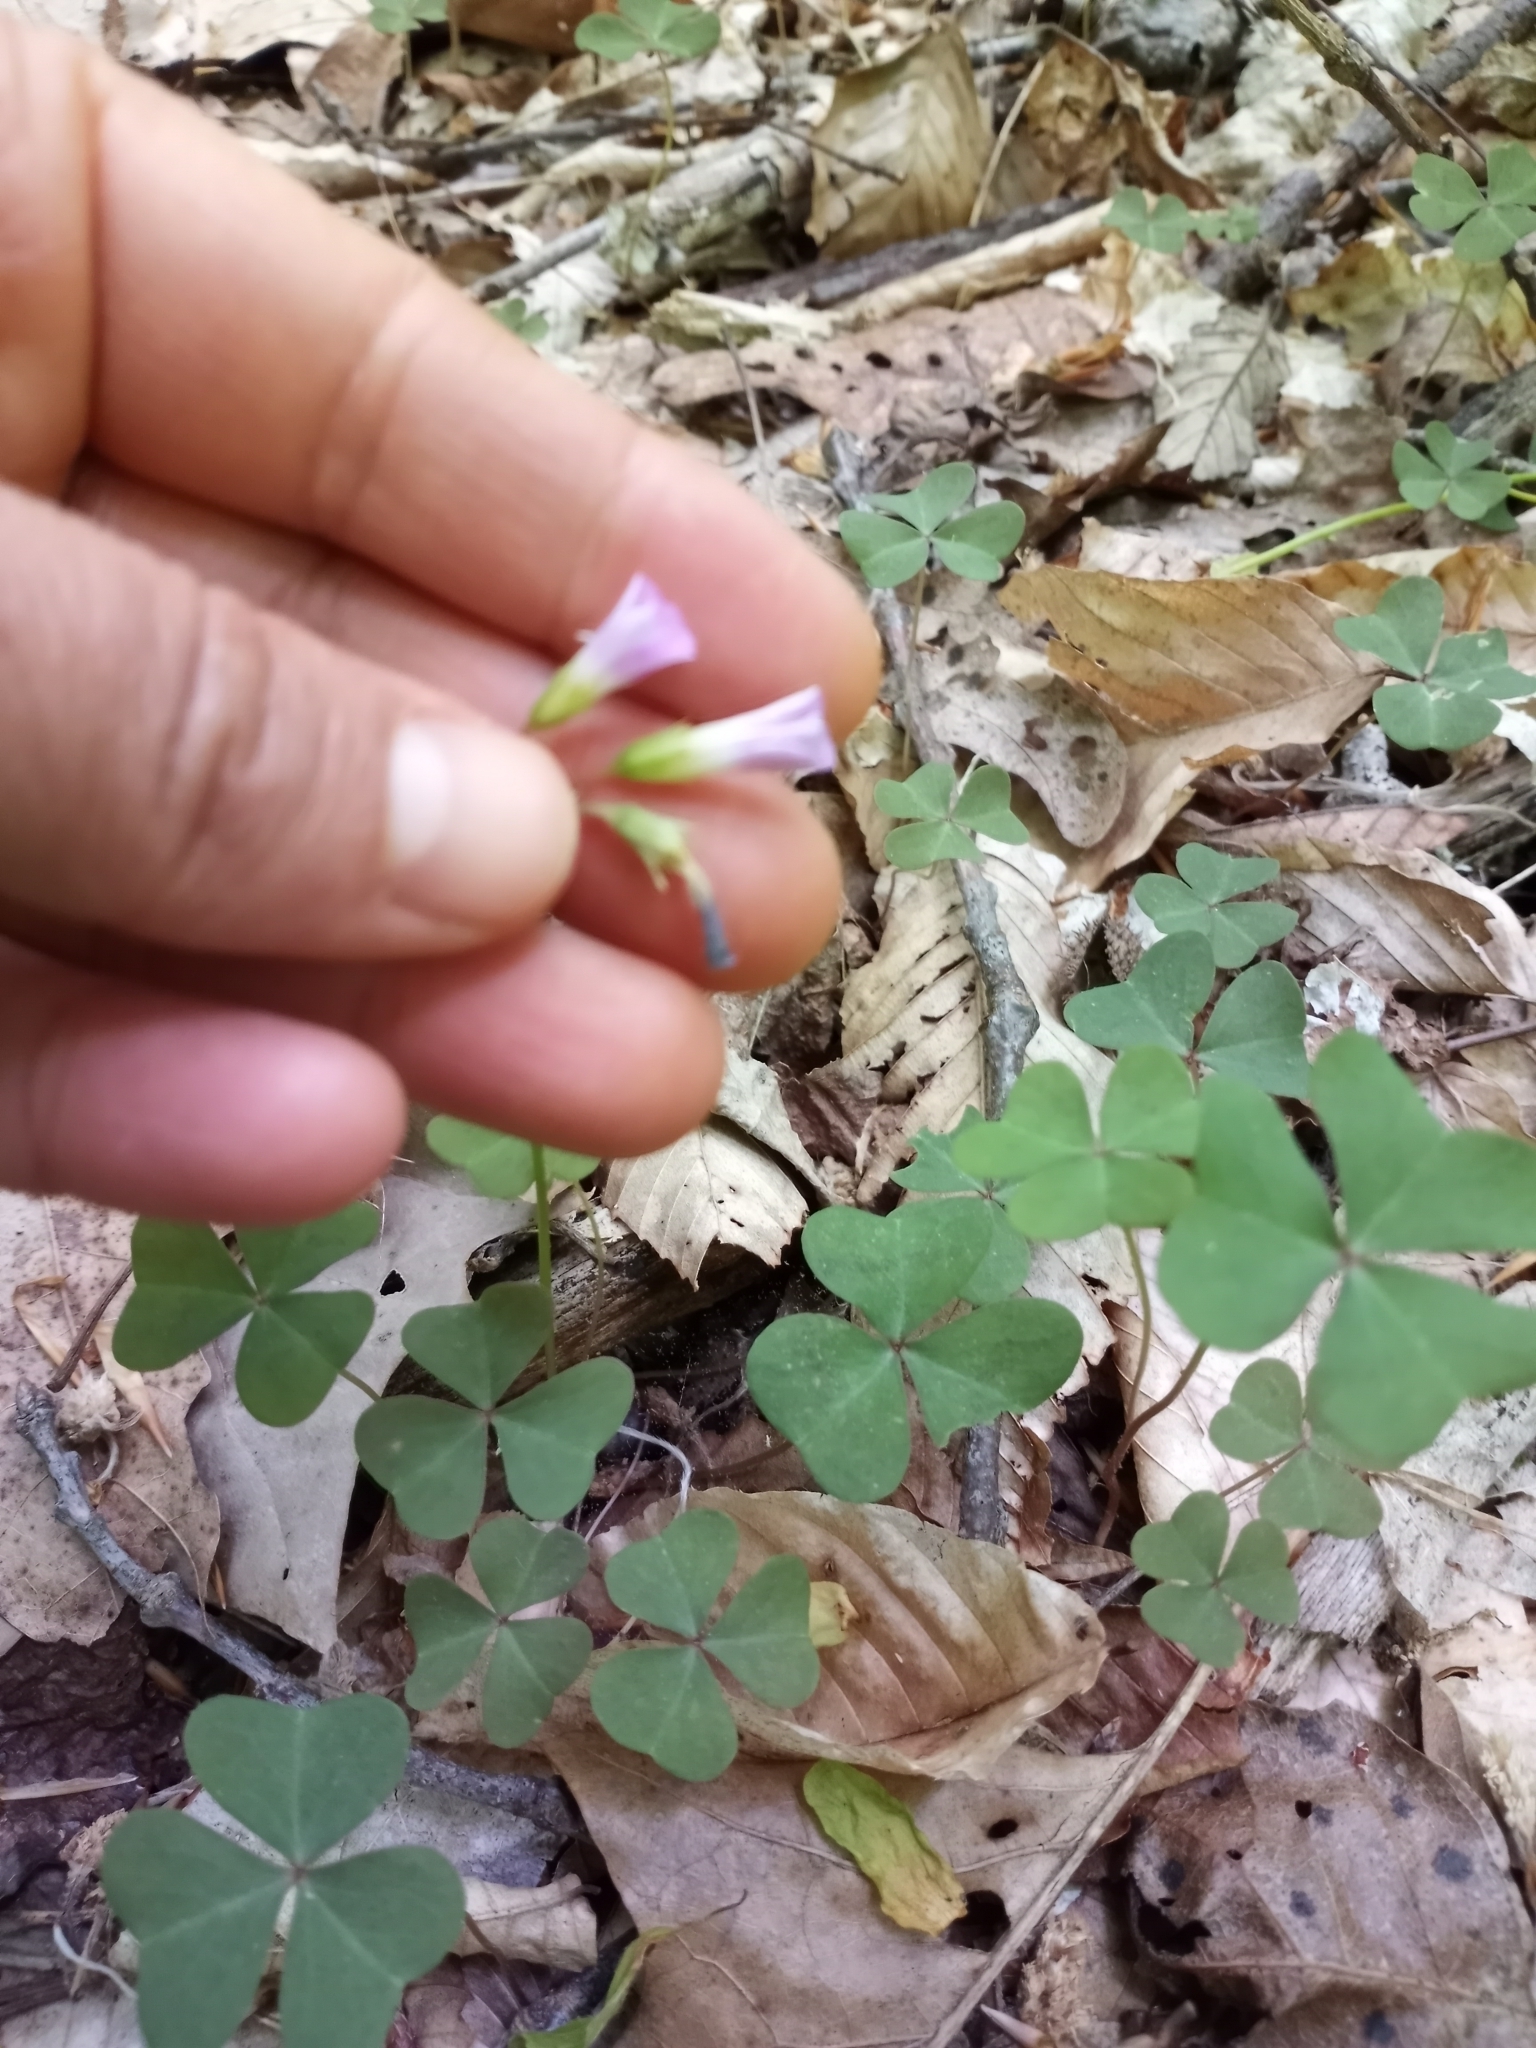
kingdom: Plantae
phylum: Tracheophyta
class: Magnoliopsida
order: Oxalidales
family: Oxalidaceae
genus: Oxalis
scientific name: Oxalis violacea
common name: Violet wood-sorrel
